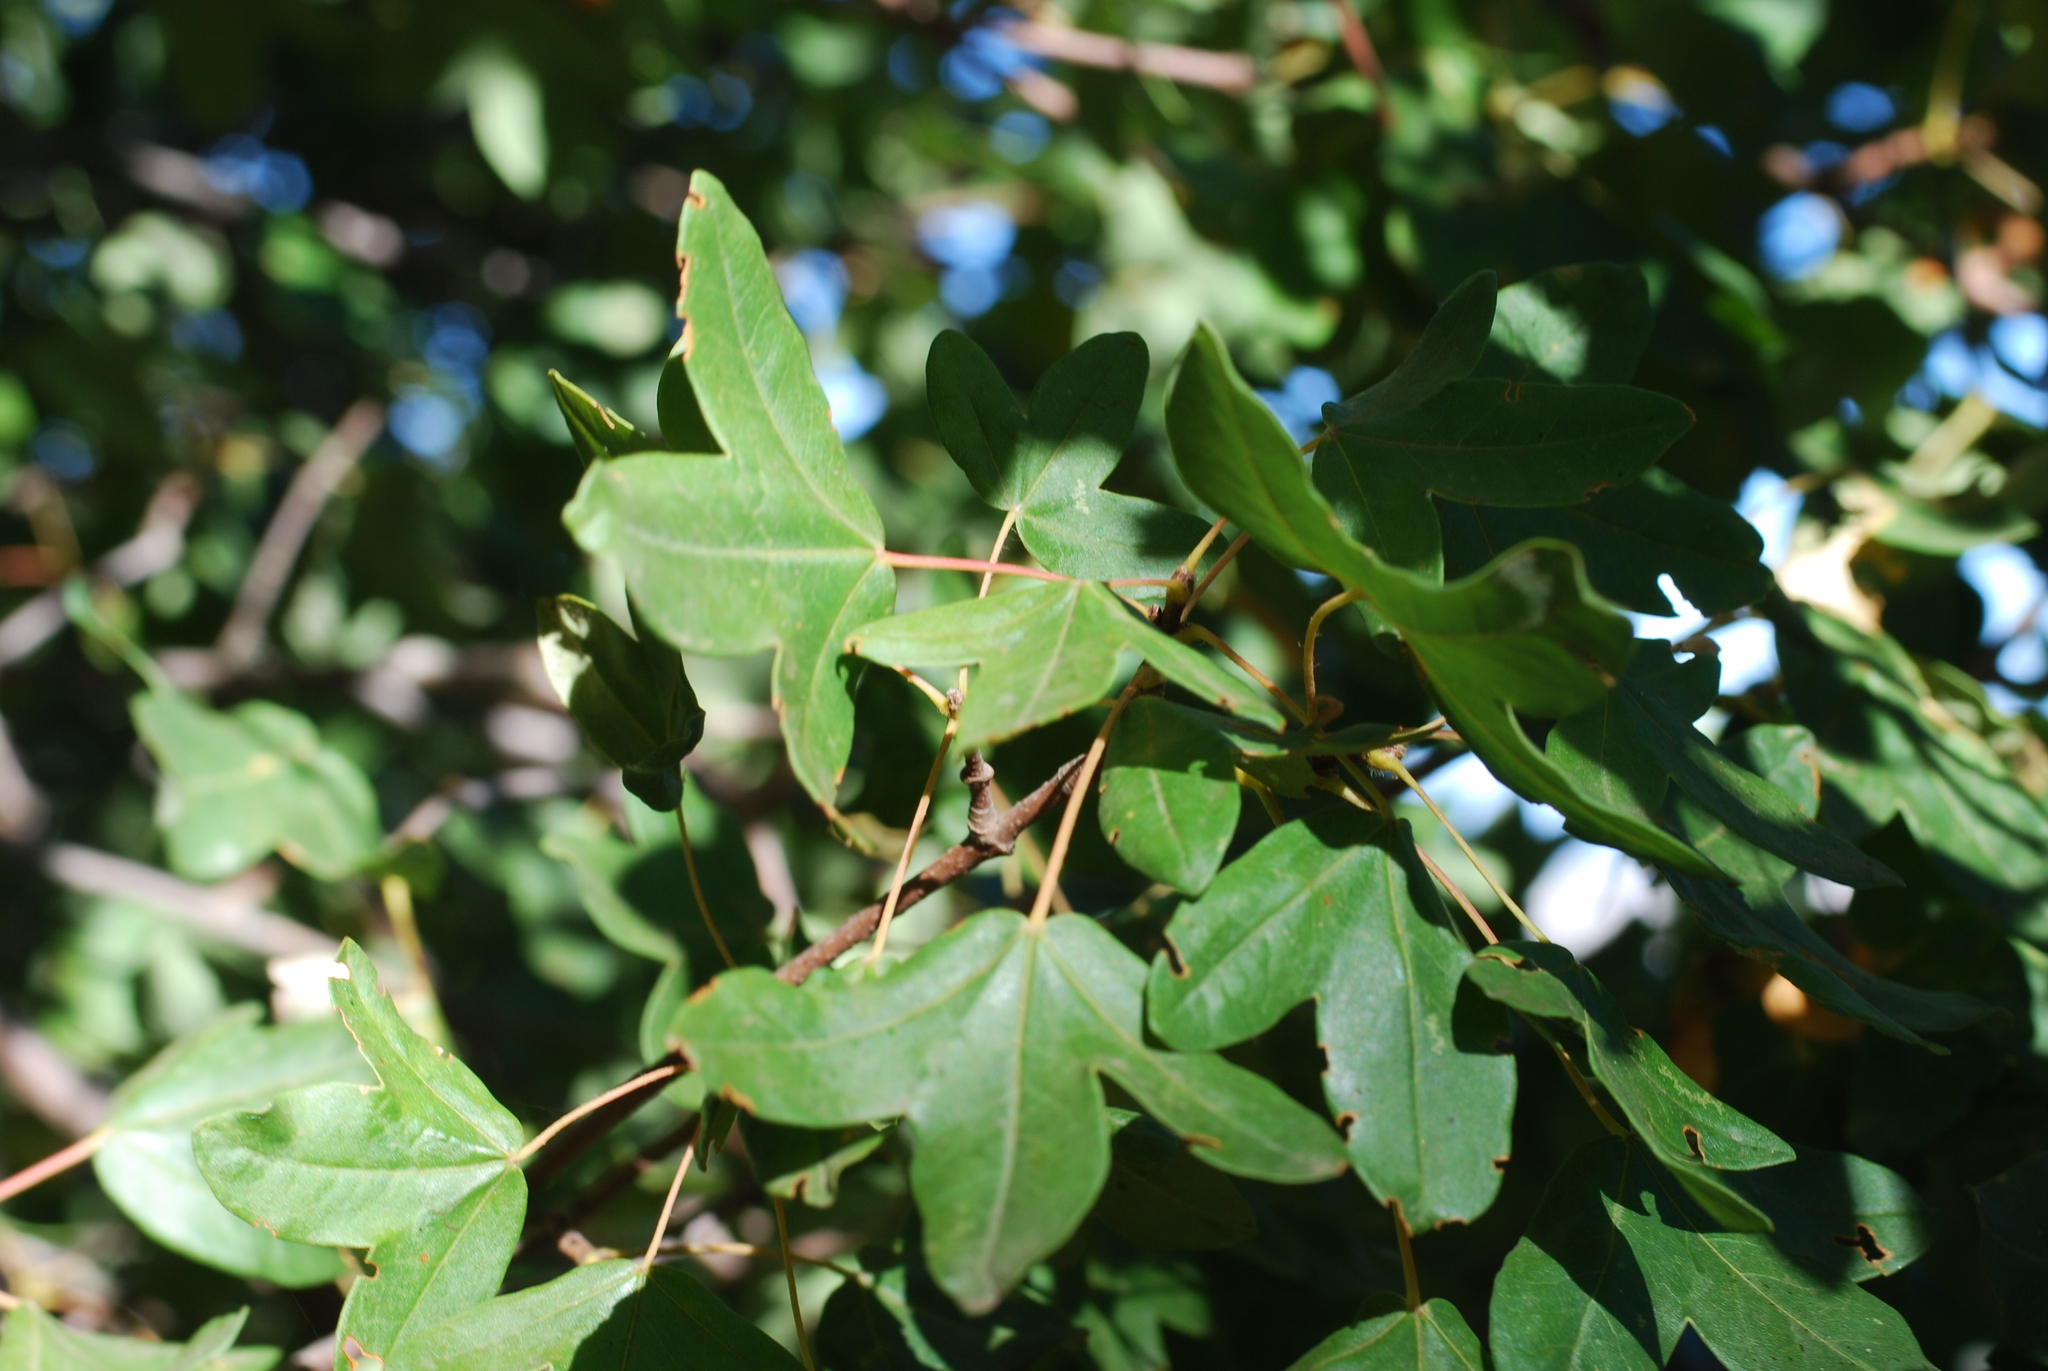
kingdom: Plantae
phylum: Tracheophyta
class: Magnoliopsida
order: Sapindales
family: Sapindaceae
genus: Acer
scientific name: Acer monspessulanum
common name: Montpellier maple
